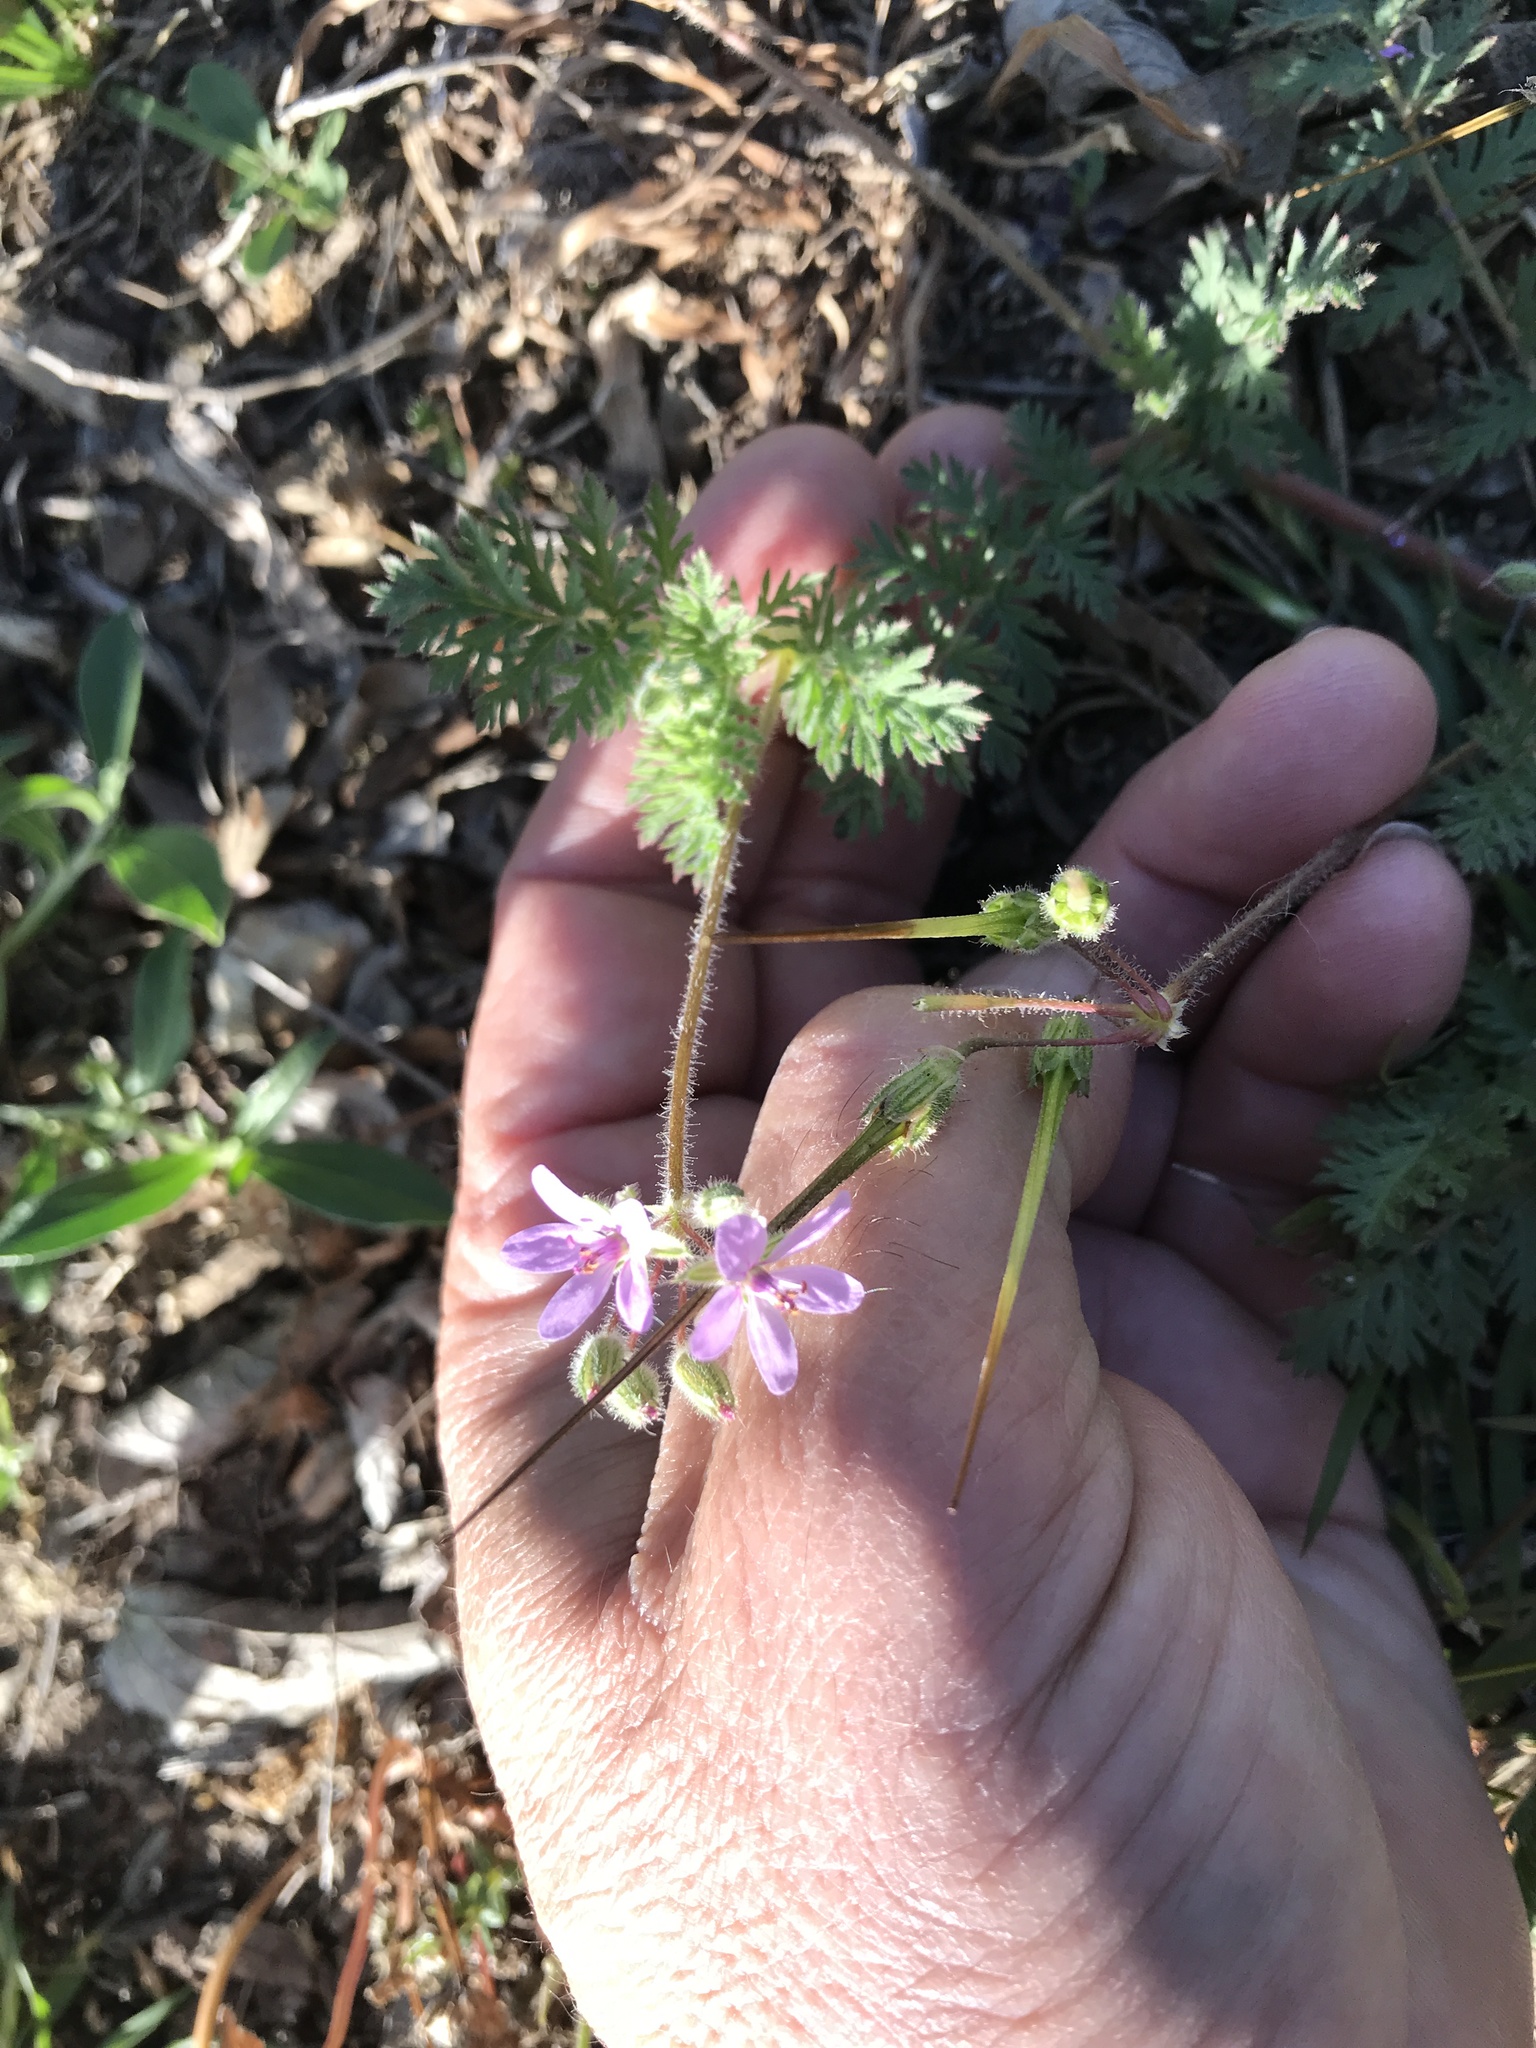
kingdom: Plantae
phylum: Tracheophyta
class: Magnoliopsida
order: Geraniales
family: Geraniaceae
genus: Erodium
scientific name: Erodium cicutarium
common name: Common stork's-bill
